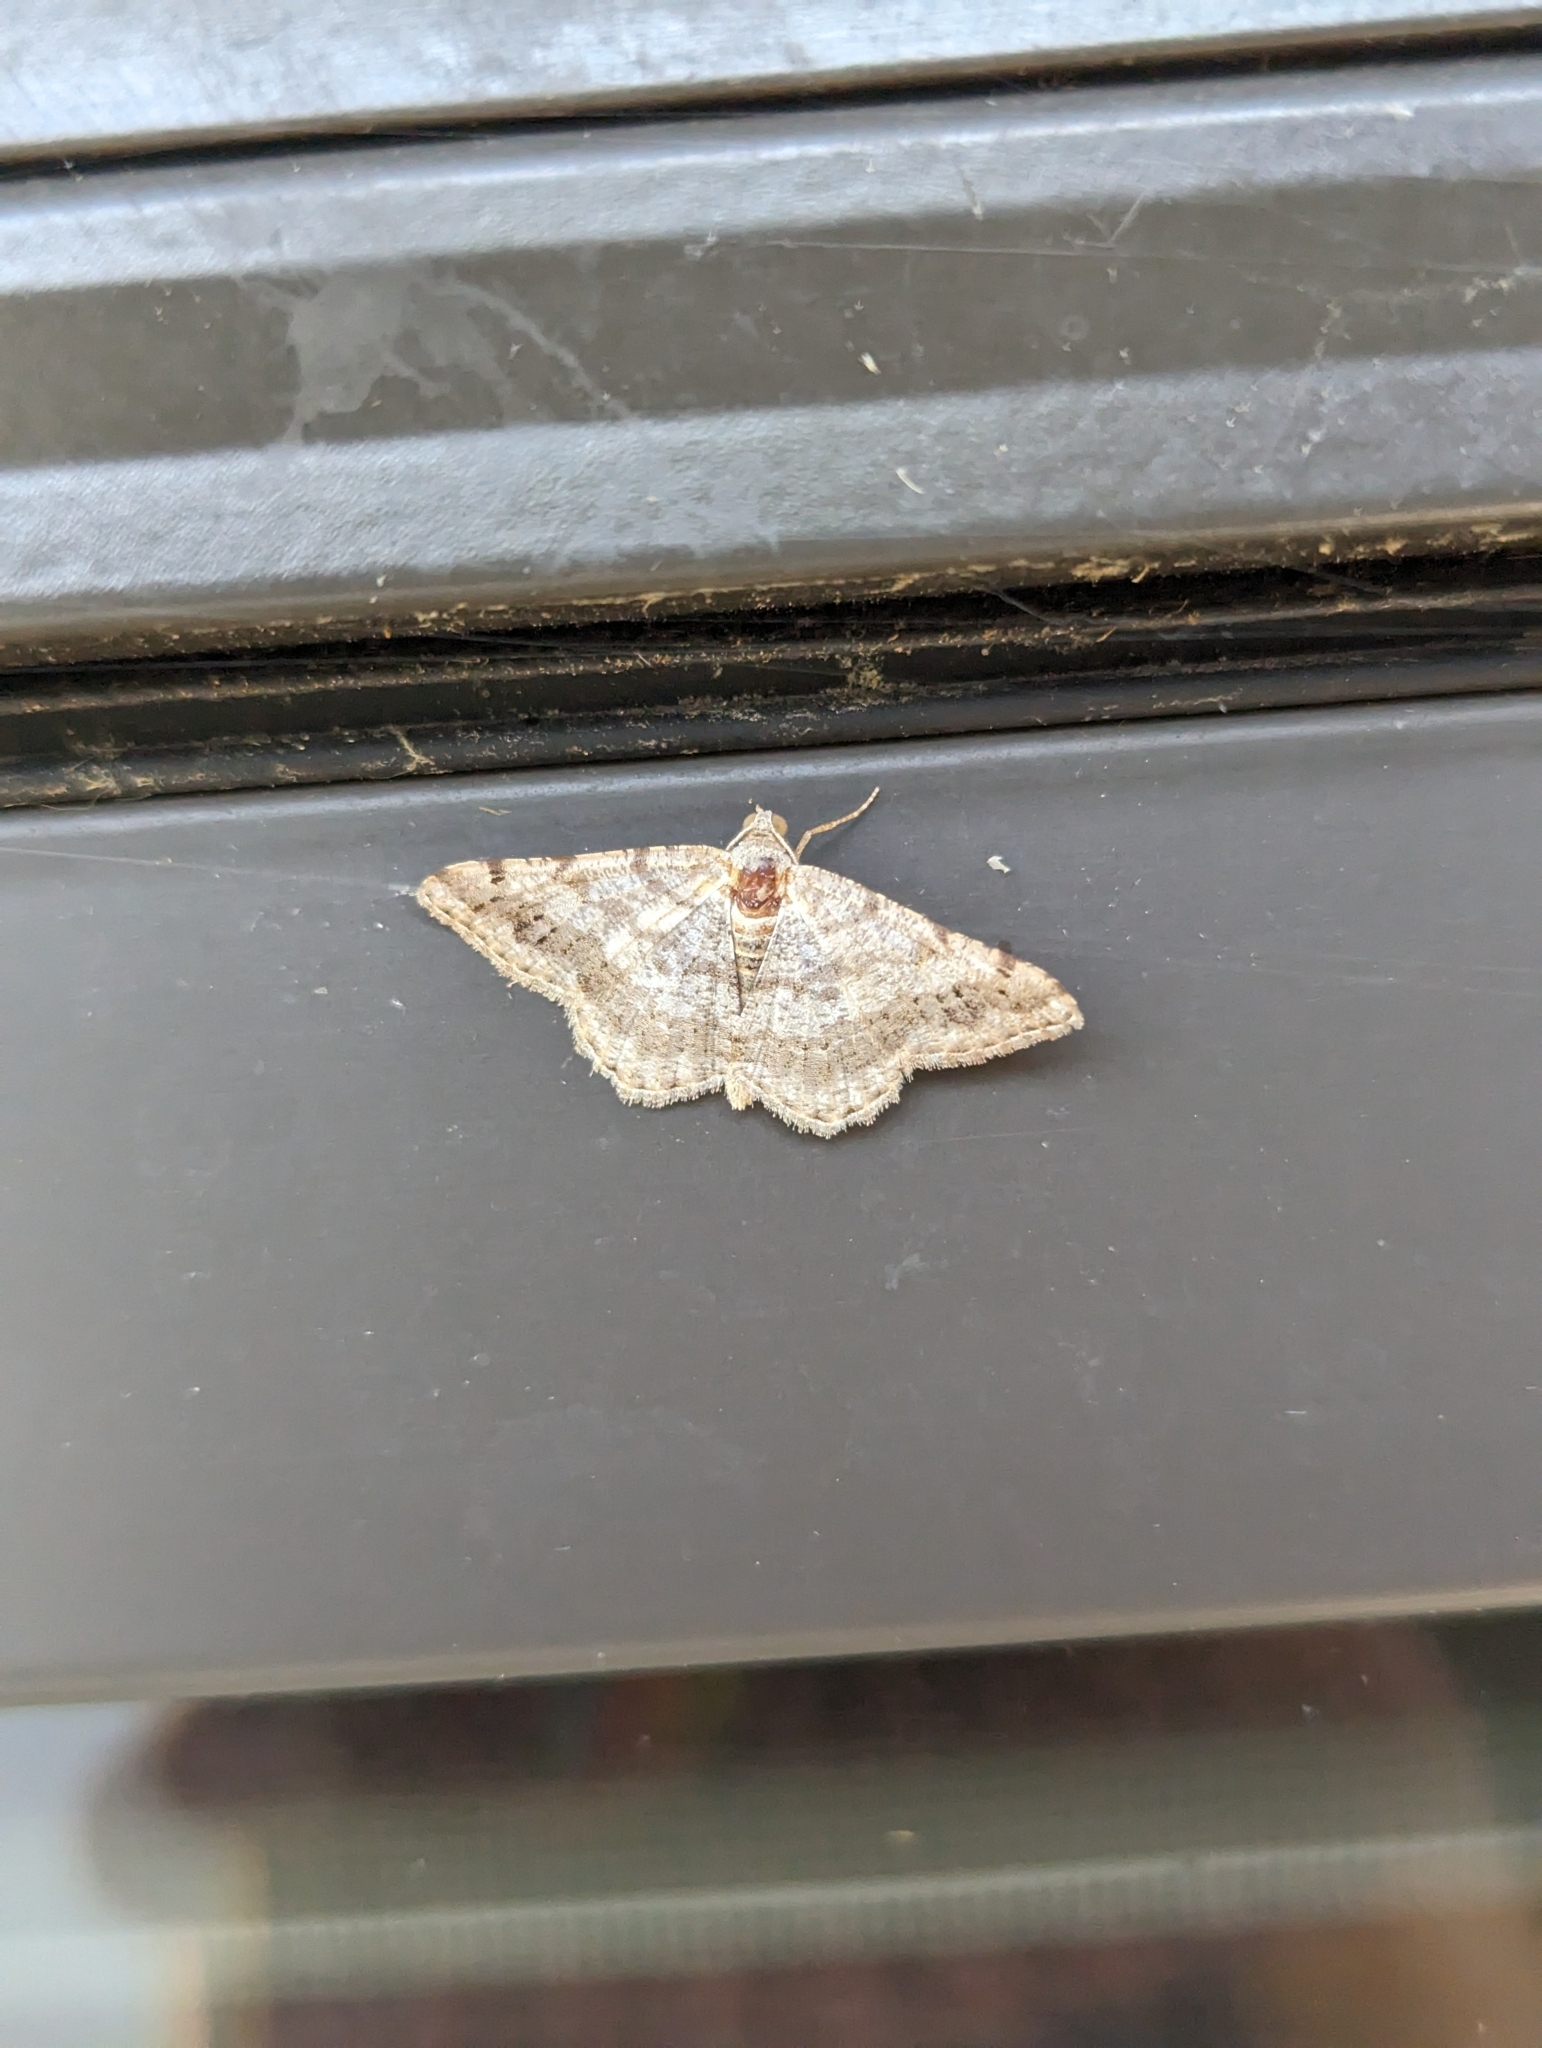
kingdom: Animalia
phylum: Arthropoda
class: Insecta
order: Lepidoptera
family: Geometridae
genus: Digrammia
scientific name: Digrammia ocellinata
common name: Faint-spotted angle
